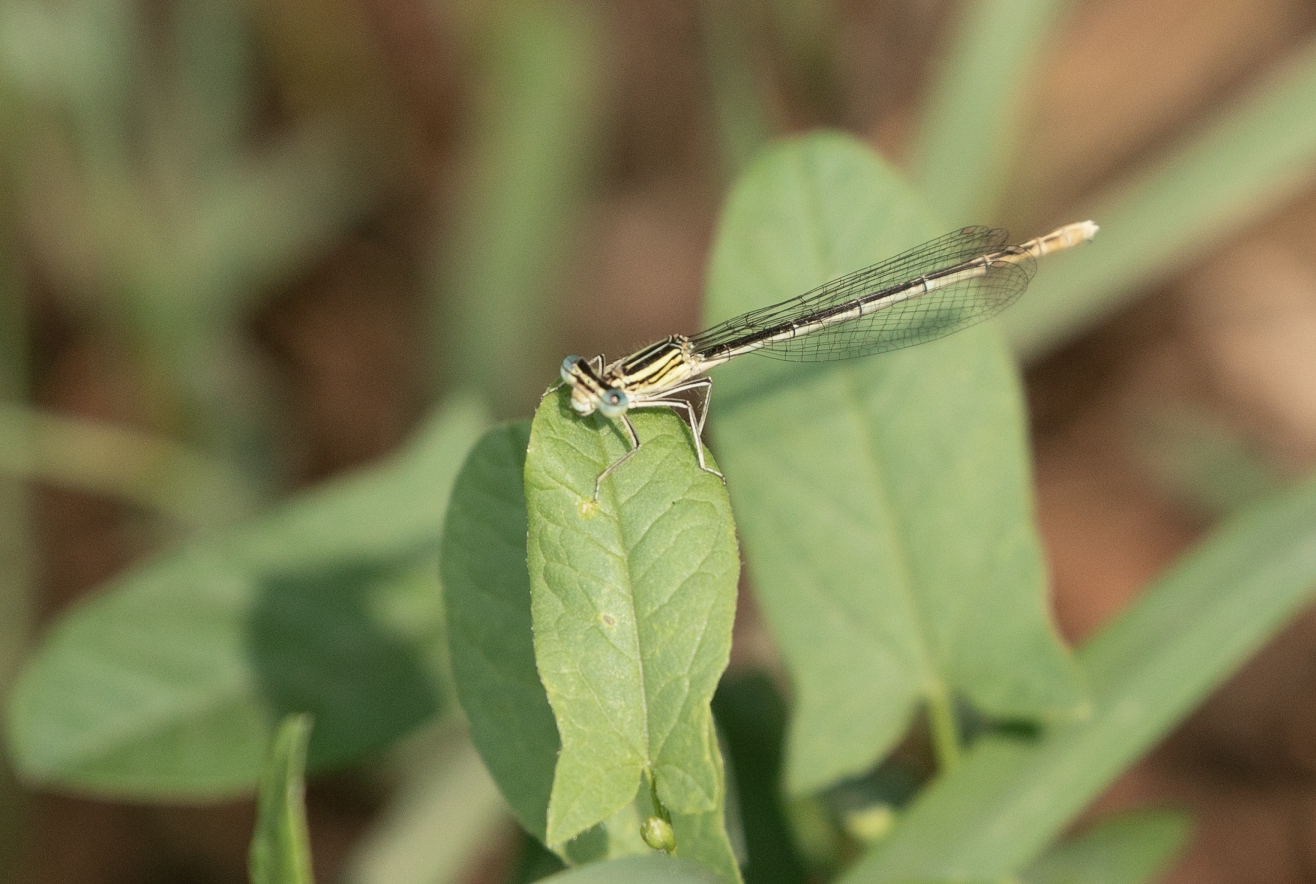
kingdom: Animalia
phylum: Arthropoda
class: Insecta
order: Odonata
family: Platycnemididae
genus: Platycnemis
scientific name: Platycnemis pennipes
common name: White-legged damselfly
